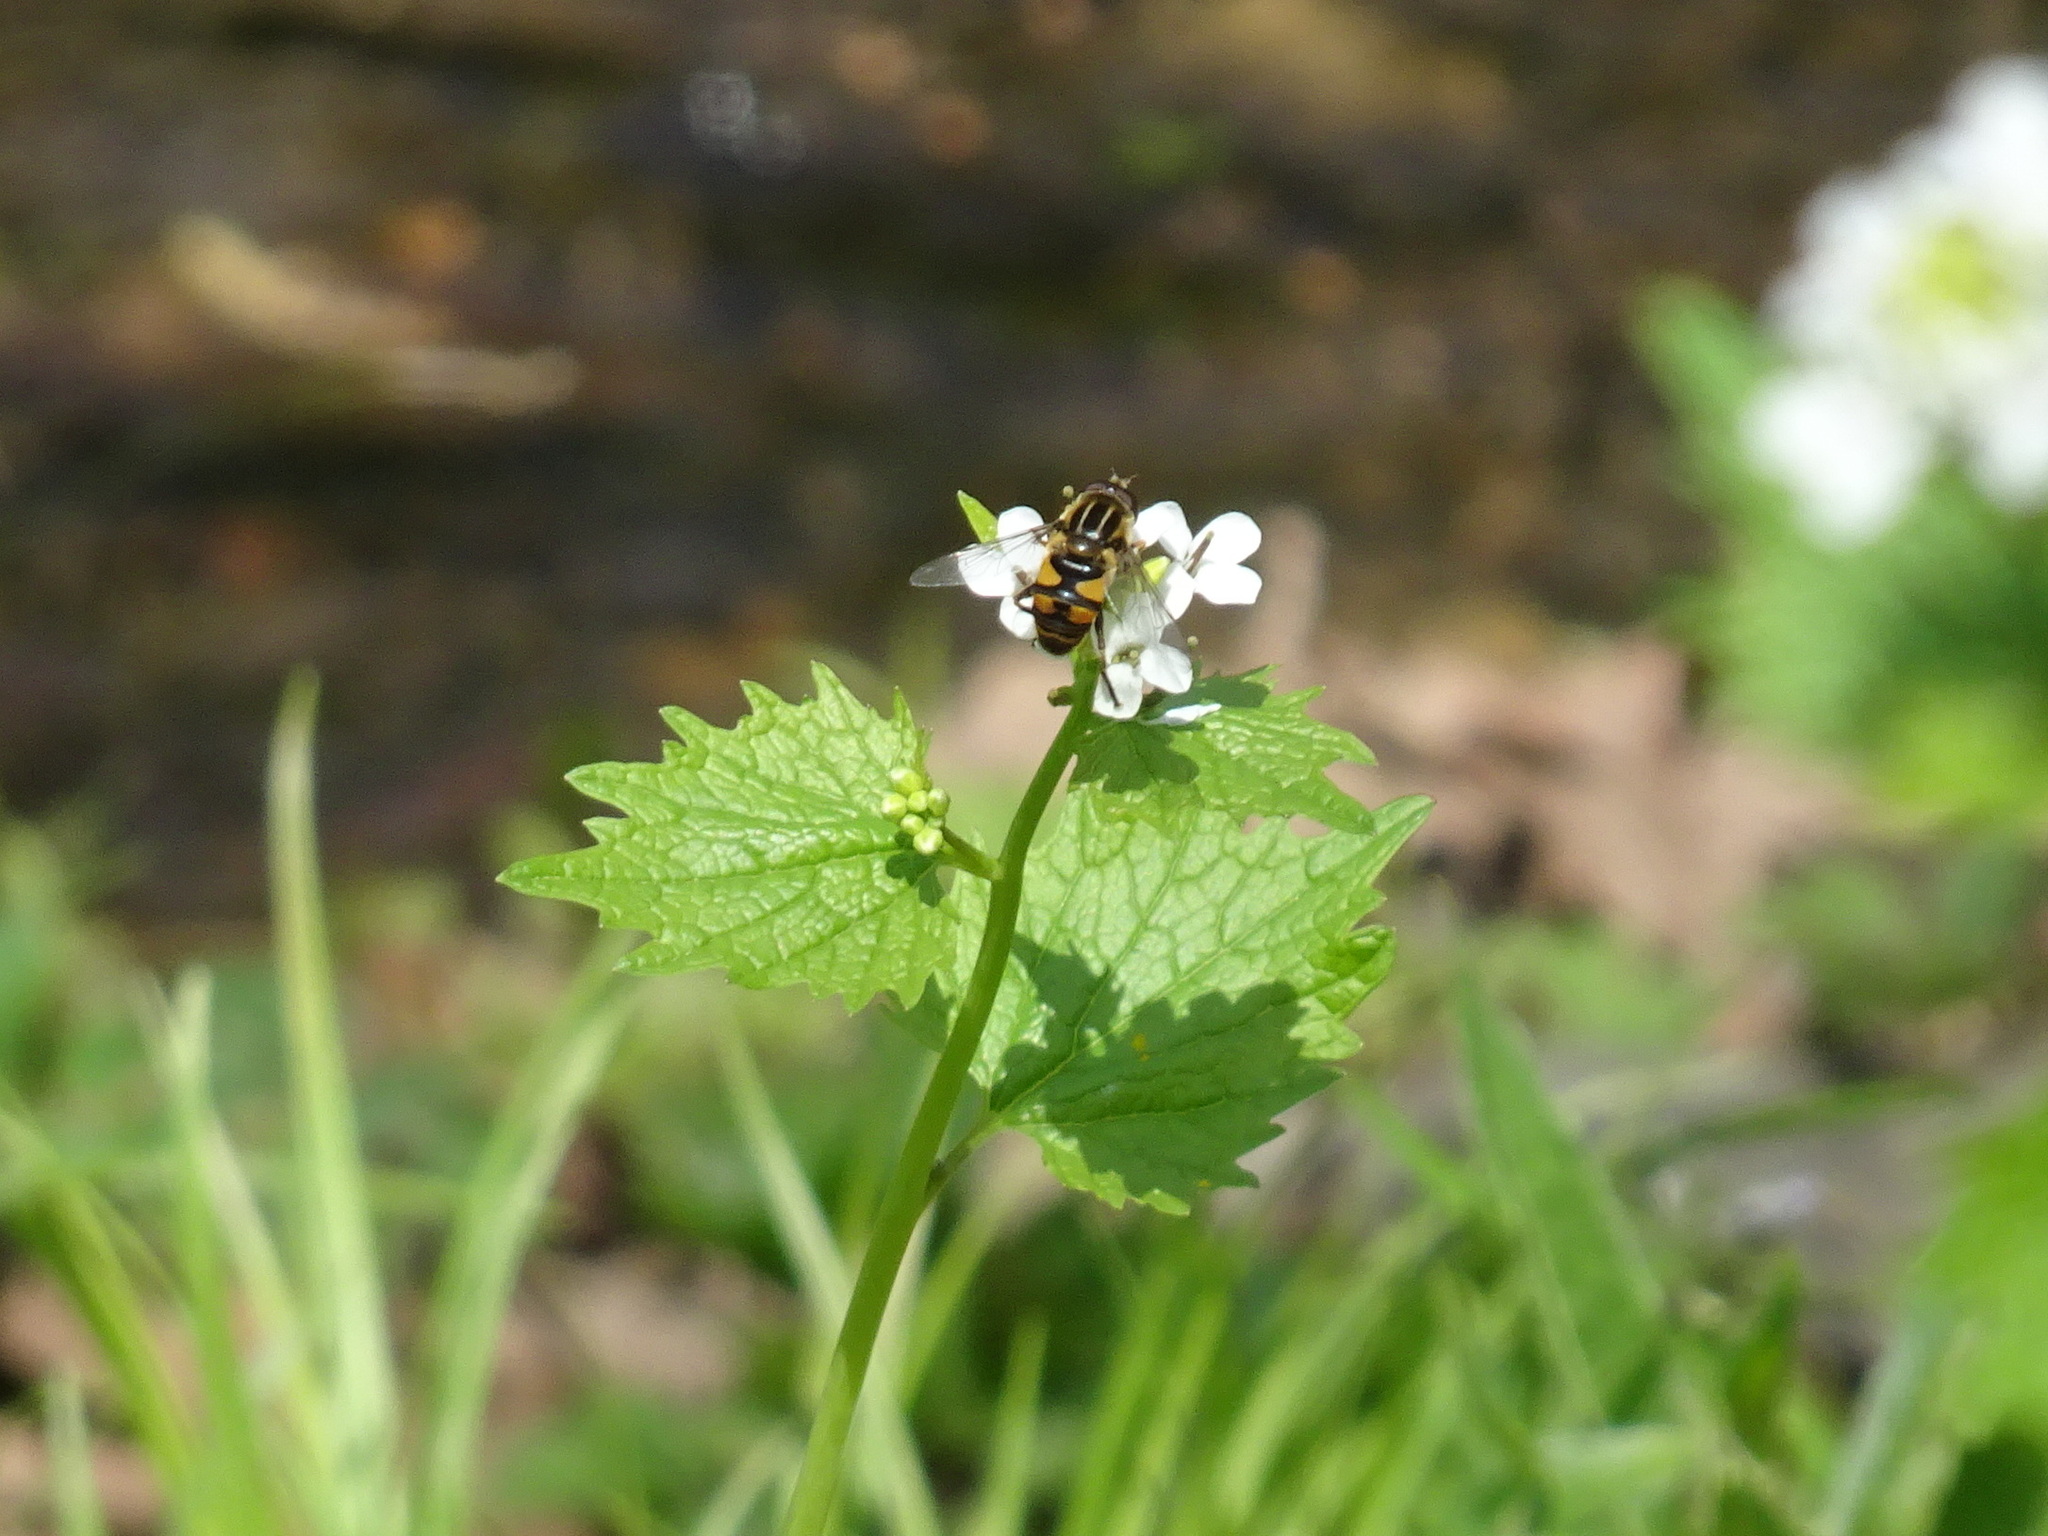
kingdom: Animalia
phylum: Arthropoda
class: Insecta
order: Diptera
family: Syrphidae
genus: Helophilus
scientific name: Helophilus fasciatus
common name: Narrow-headed marsh fly
